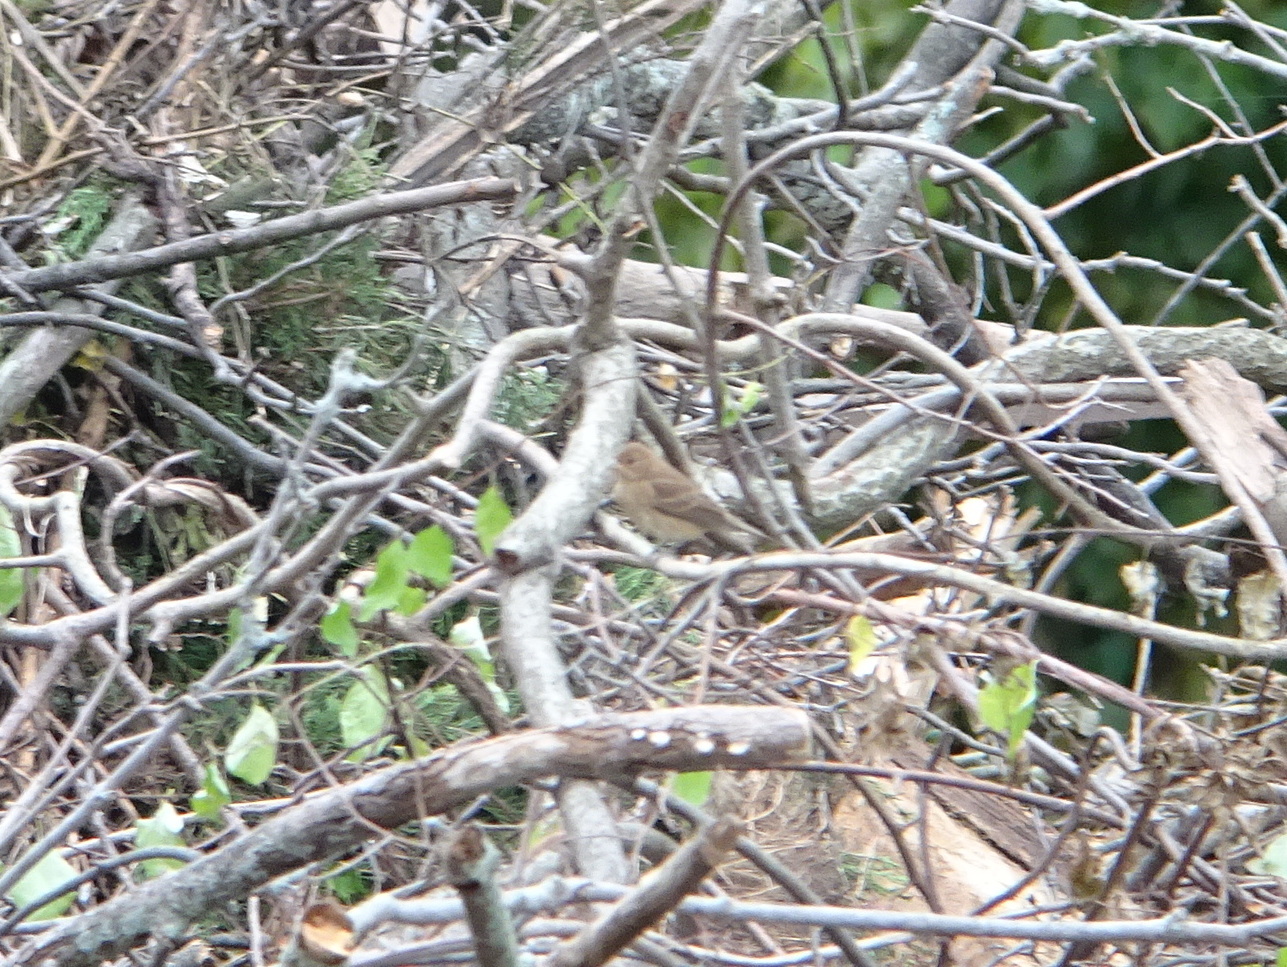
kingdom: Animalia
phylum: Chordata
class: Aves
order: Passeriformes
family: Cardinalidae
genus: Passerina
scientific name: Passerina cyanea
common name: Indigo bunting
